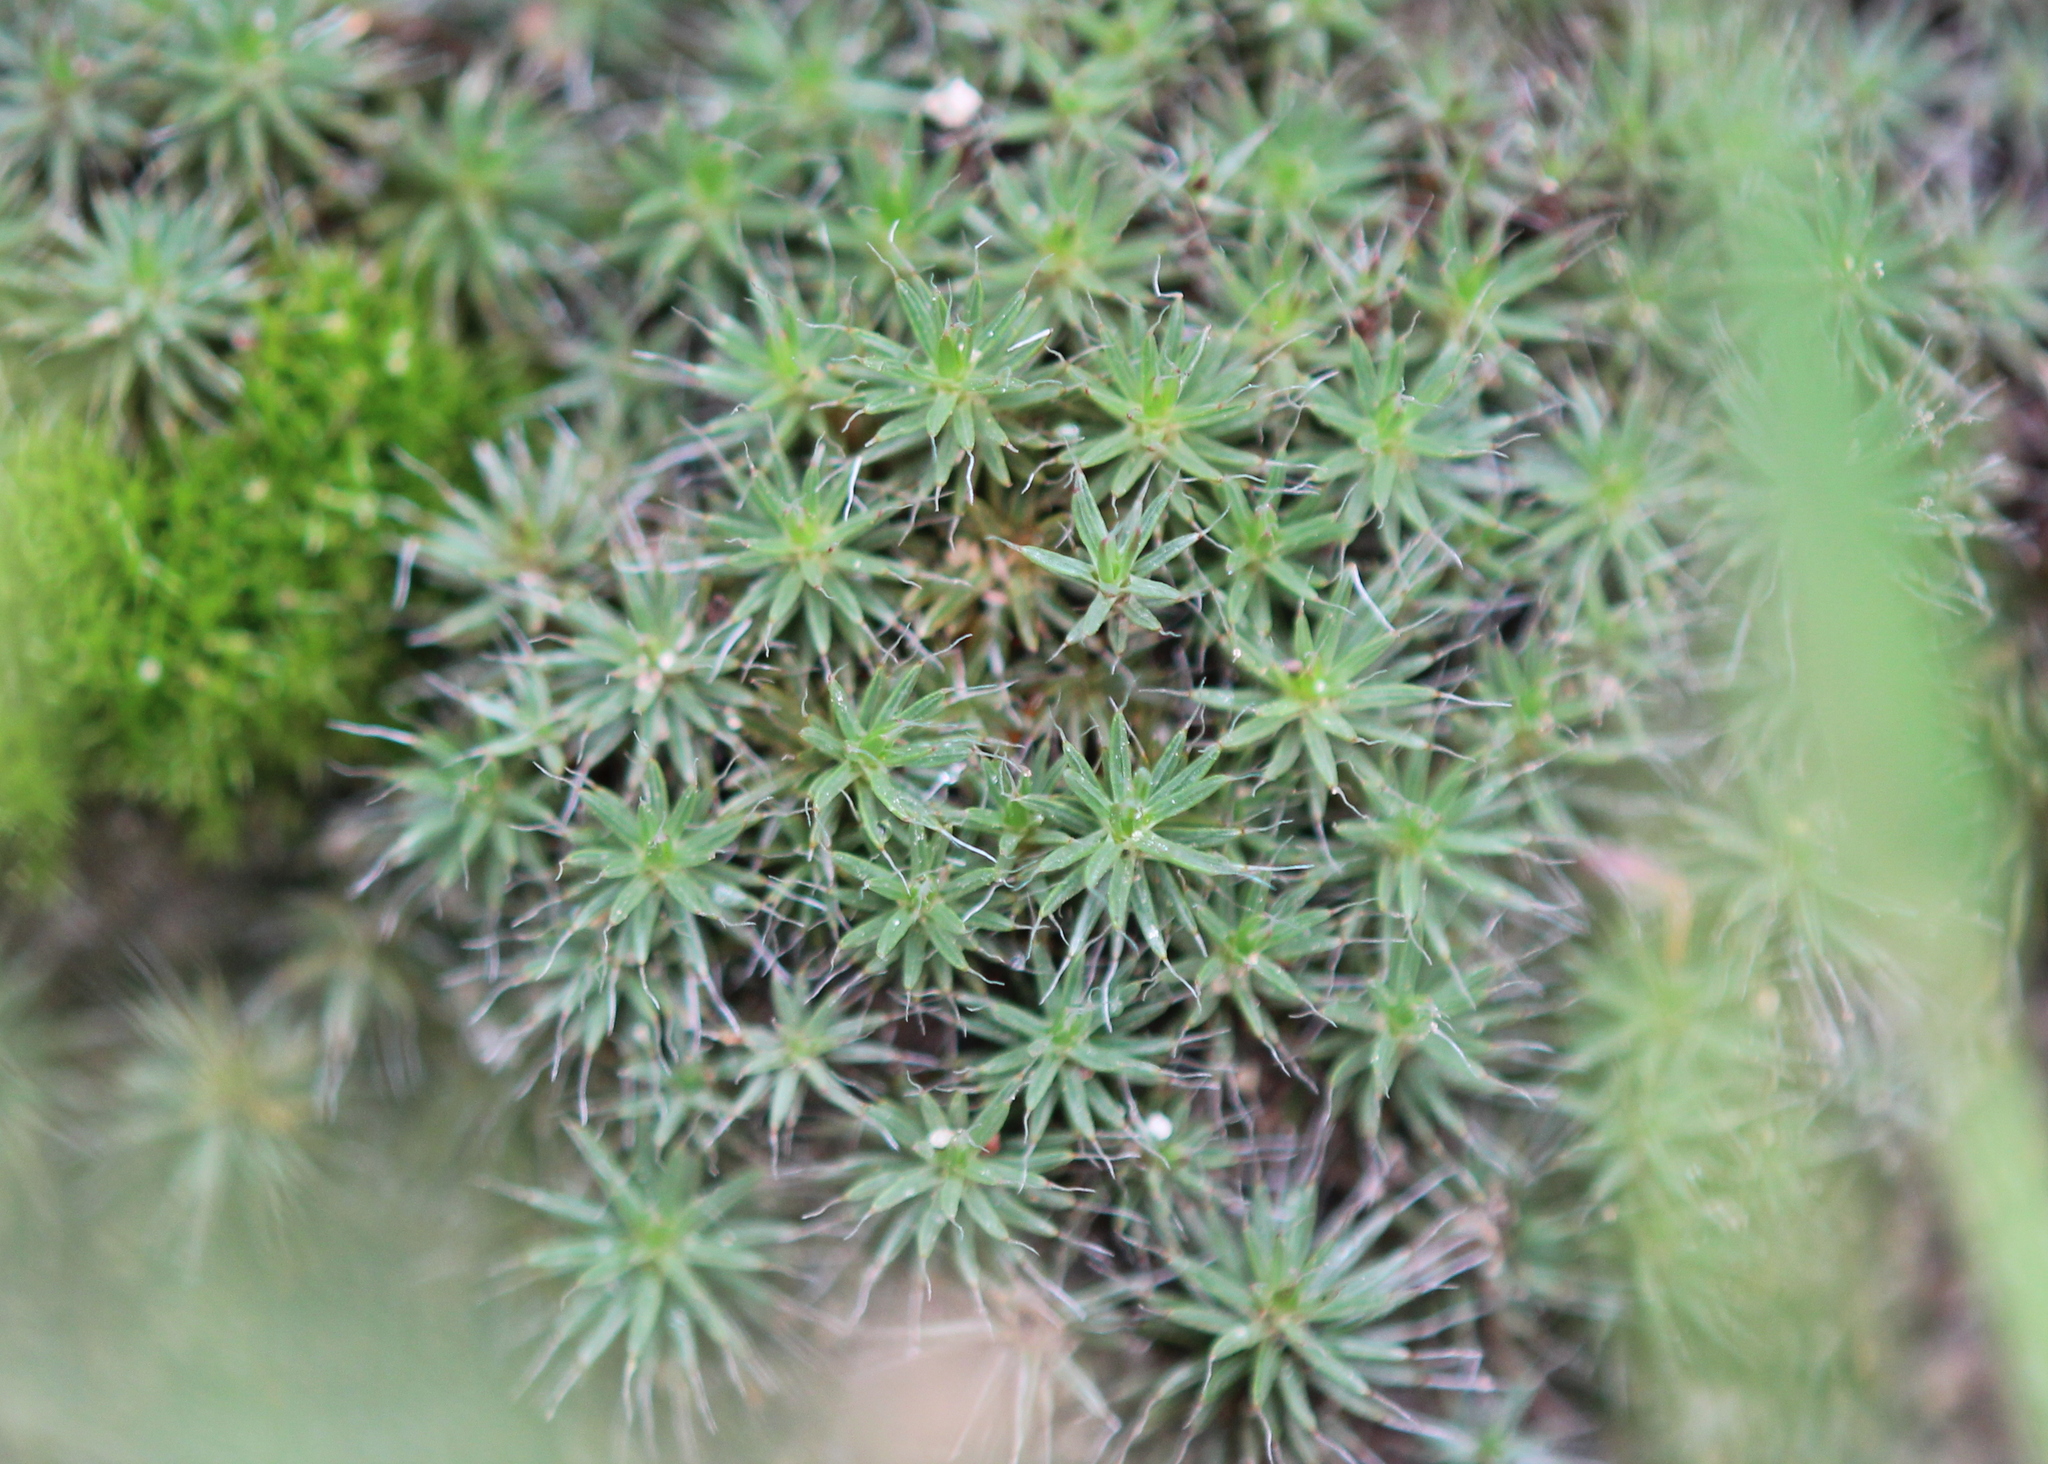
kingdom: Plantae
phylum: Bryophyta
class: Polytrichopsida
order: Polytrichales
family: Polytrichaceae
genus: Polytrichum
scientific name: Polytrichum piliferum
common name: Bristly haircap
